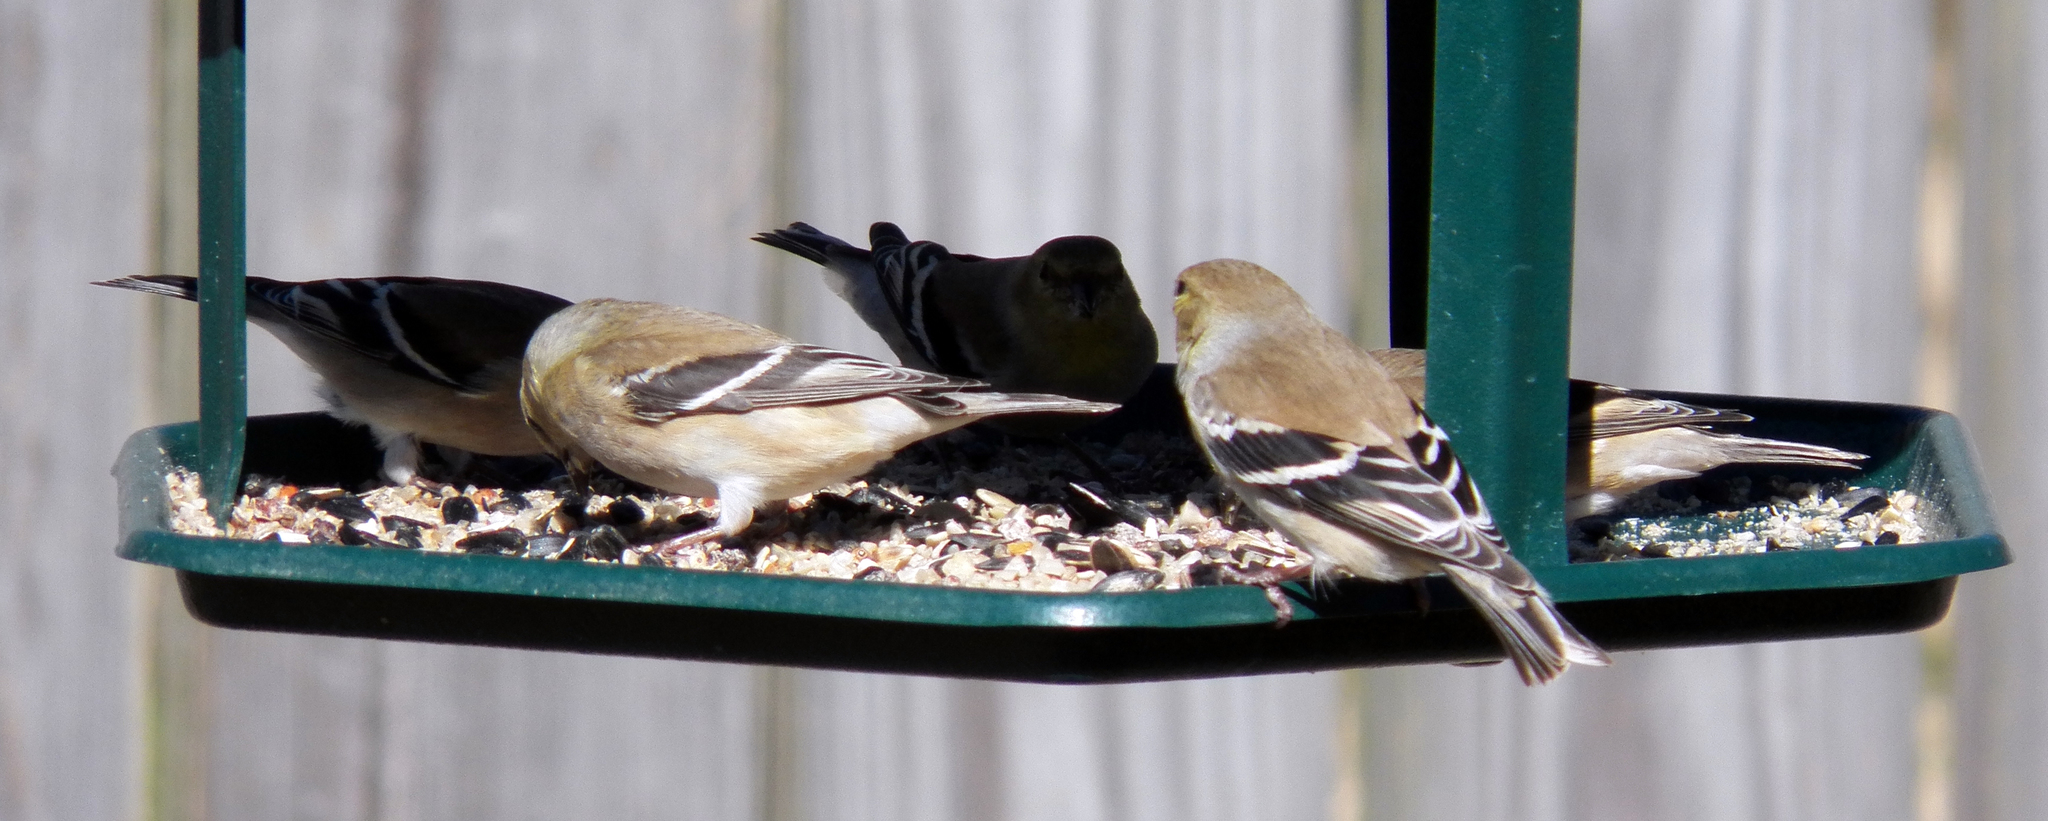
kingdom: Animalia
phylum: Chordata
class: Aves
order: Passeriformes
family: Fringillidae
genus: Spinus
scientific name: Spinus tristis
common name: American goldfinch
